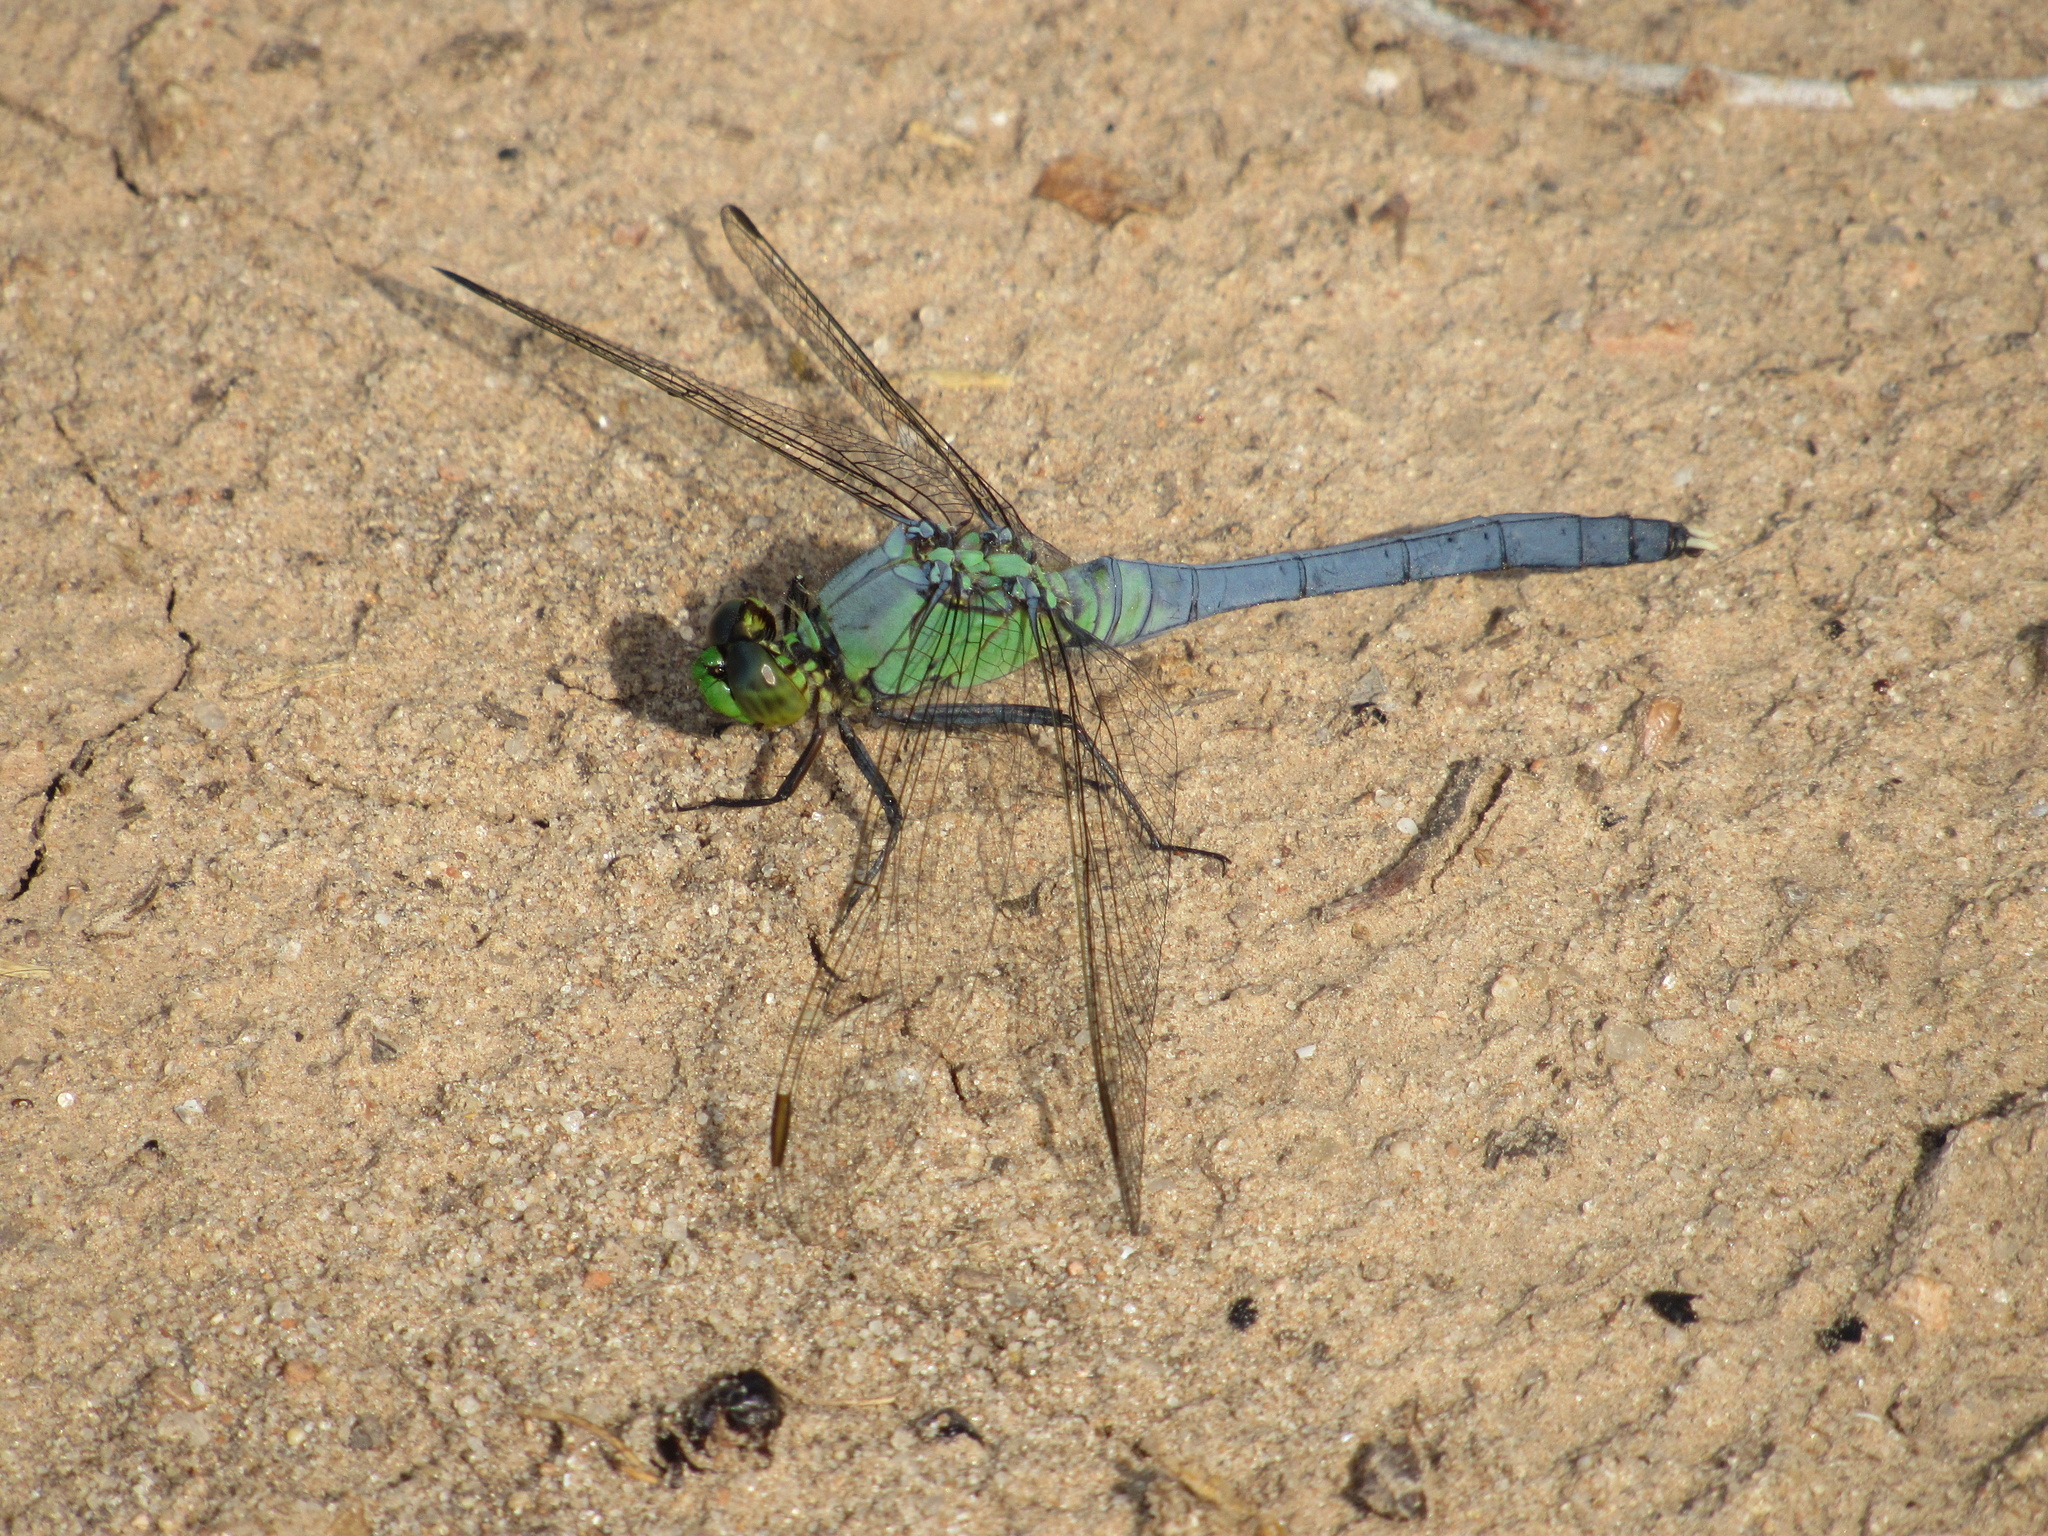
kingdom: Animalia
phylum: Arthropoda
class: Insecta
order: Odonata
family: Libellulidae
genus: Erythemis
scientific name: Erythemis simplicicollis
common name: Eastern pondhawk
